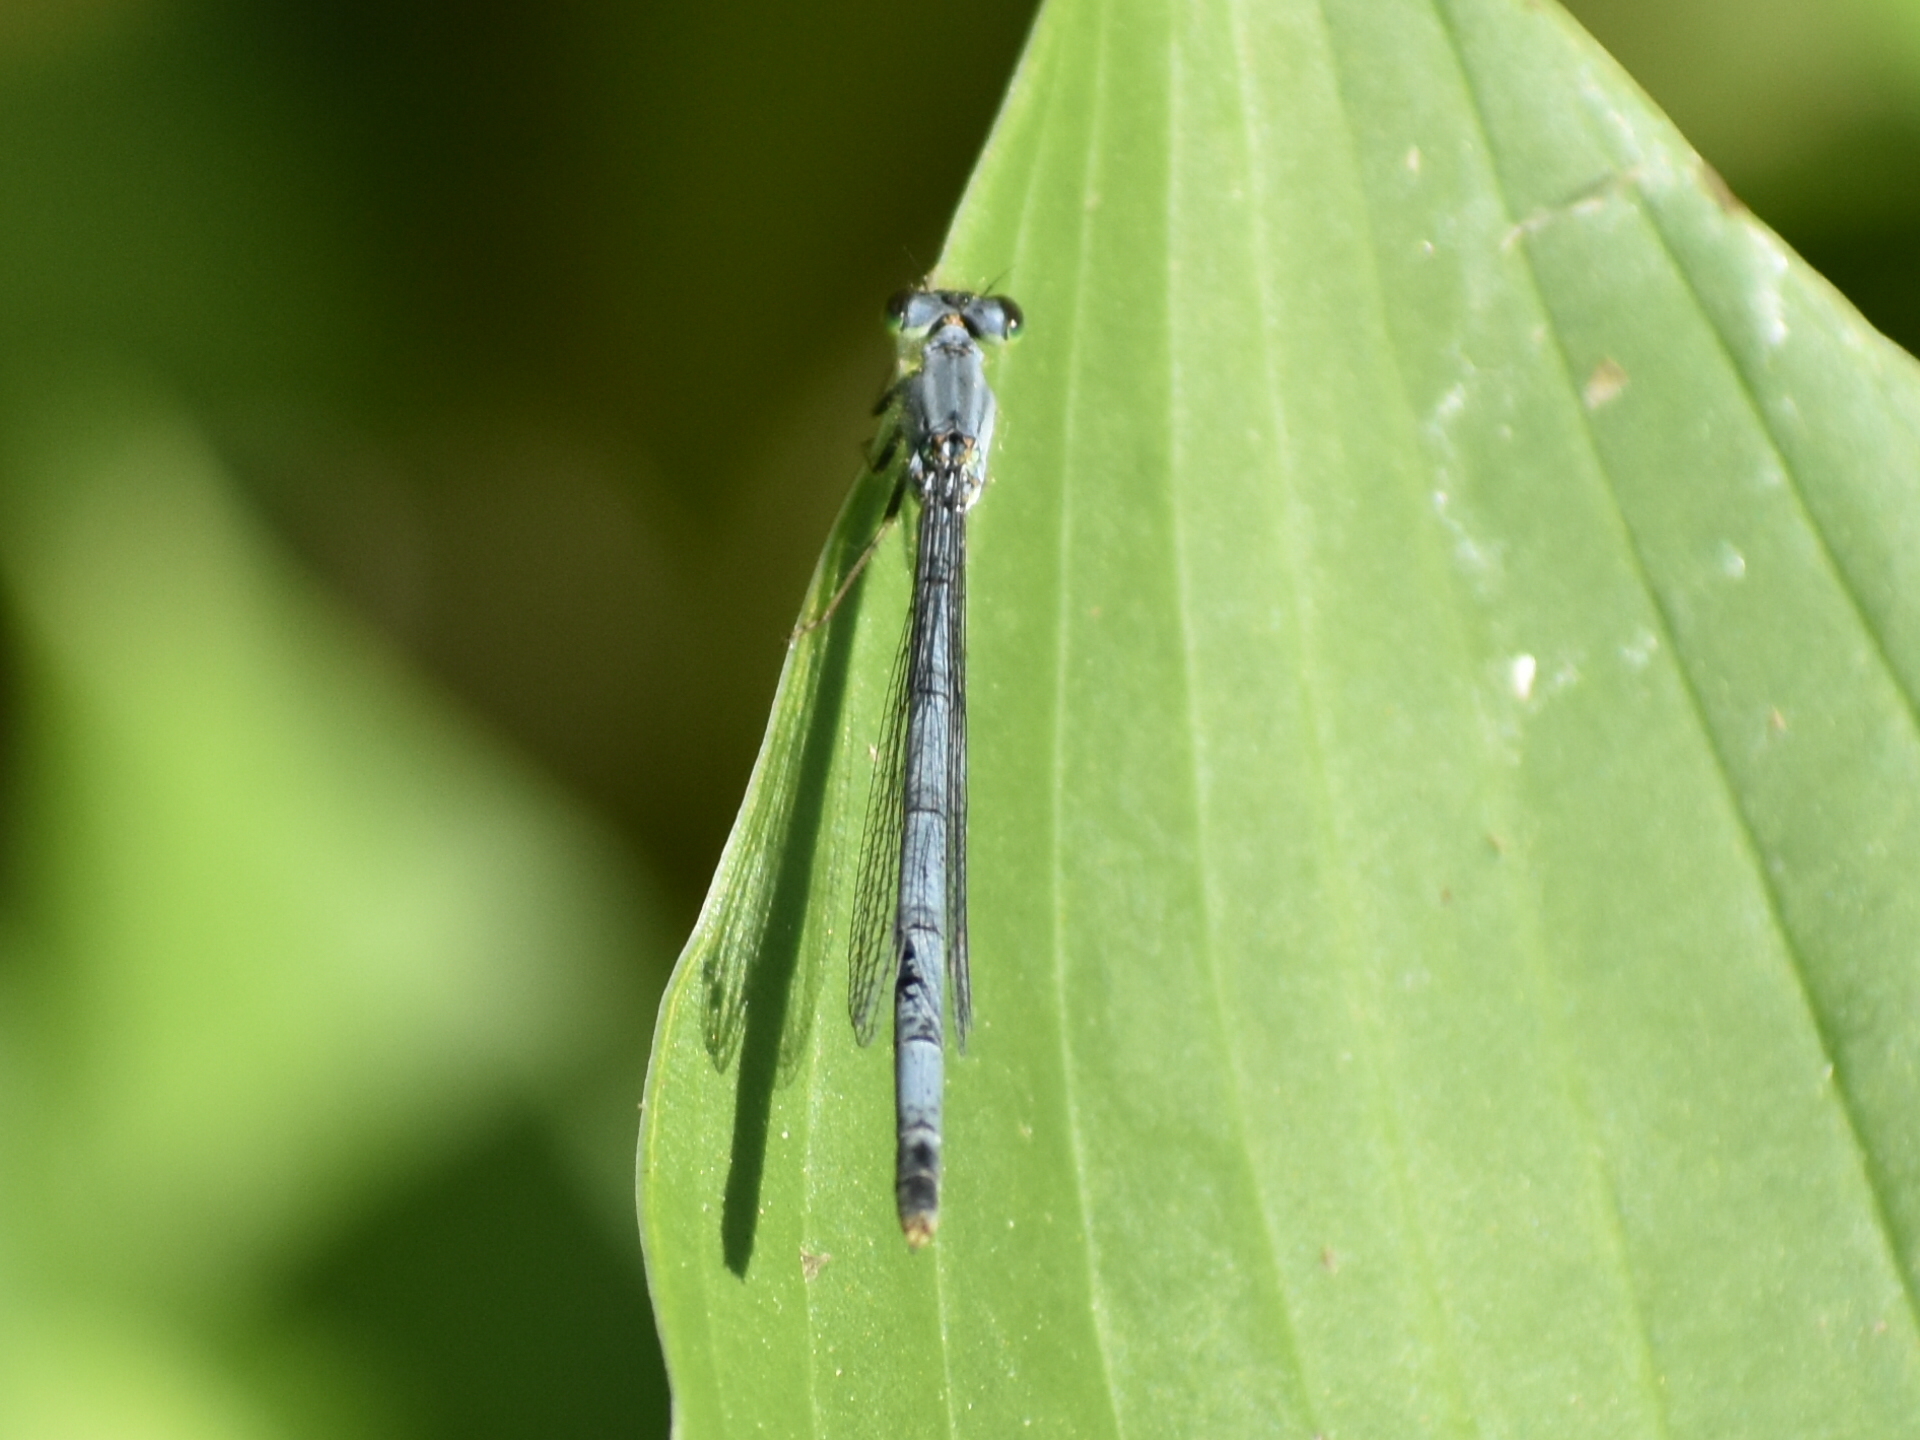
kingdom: Animalia
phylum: Arthropoda
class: Insecta
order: Odonata
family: Coenagrionidae
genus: Ischnura
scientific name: Ischnura verticalis
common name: Eastern forktail
